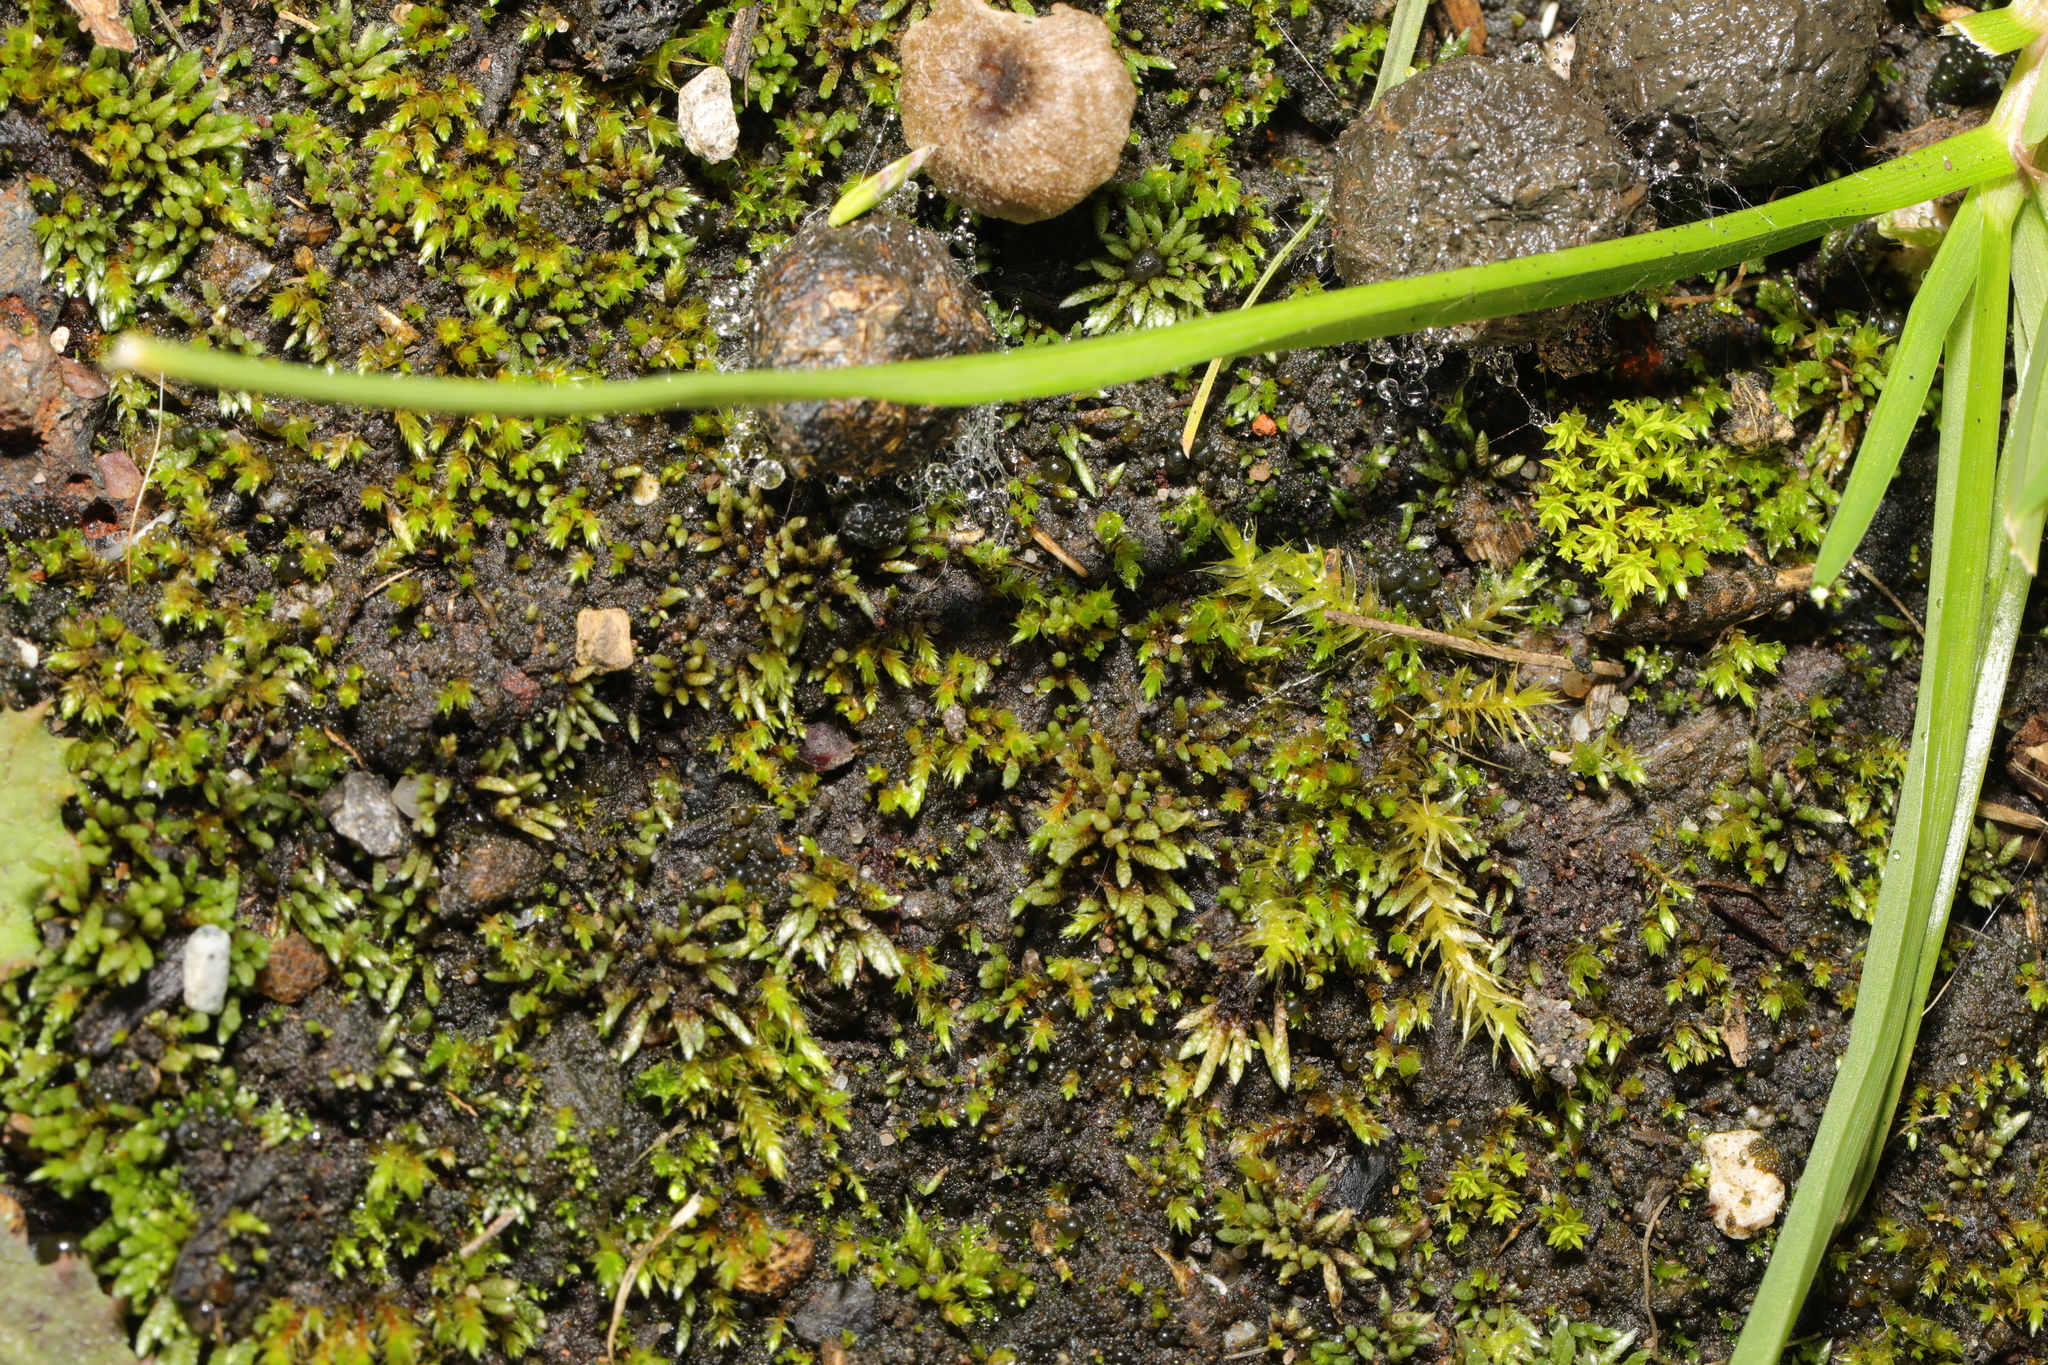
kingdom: Plantae
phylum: Bryophyta
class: Bryopsida
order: Bryales
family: Bryaceae
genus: Bryum
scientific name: Bryum argenteum
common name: Silver-moss
